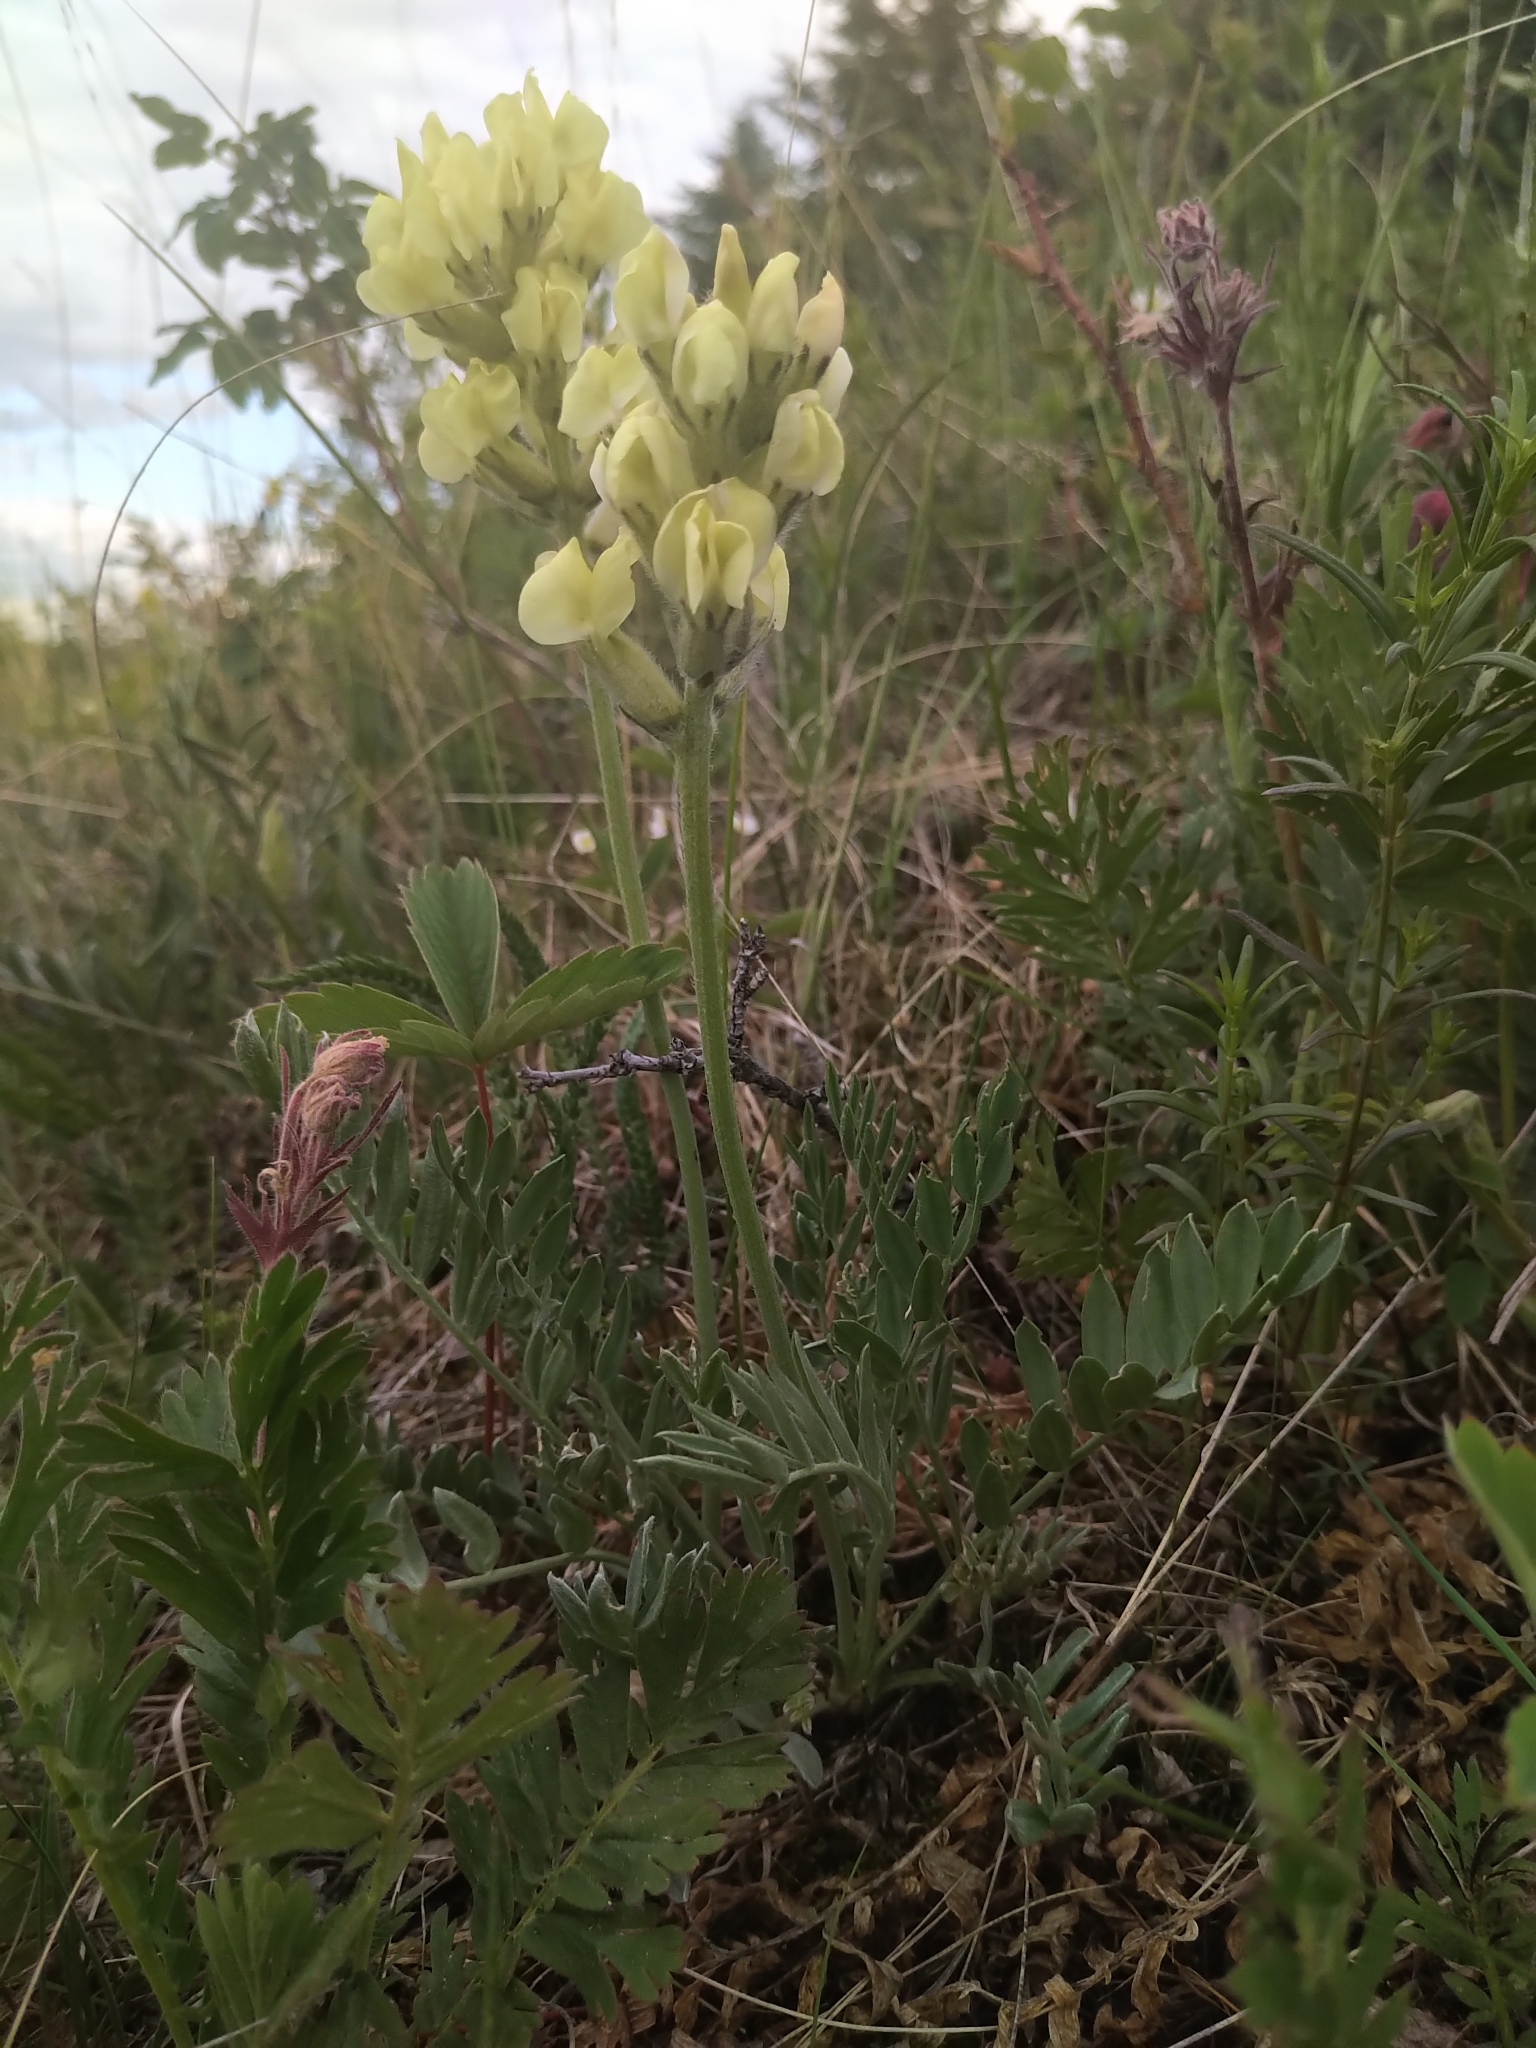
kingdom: Plantae
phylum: Tracheophyta
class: Magnoliopsida
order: Fabales
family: Fabaceae
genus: Oxytropis
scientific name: Oxytropis sericea
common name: Silky locoweed
